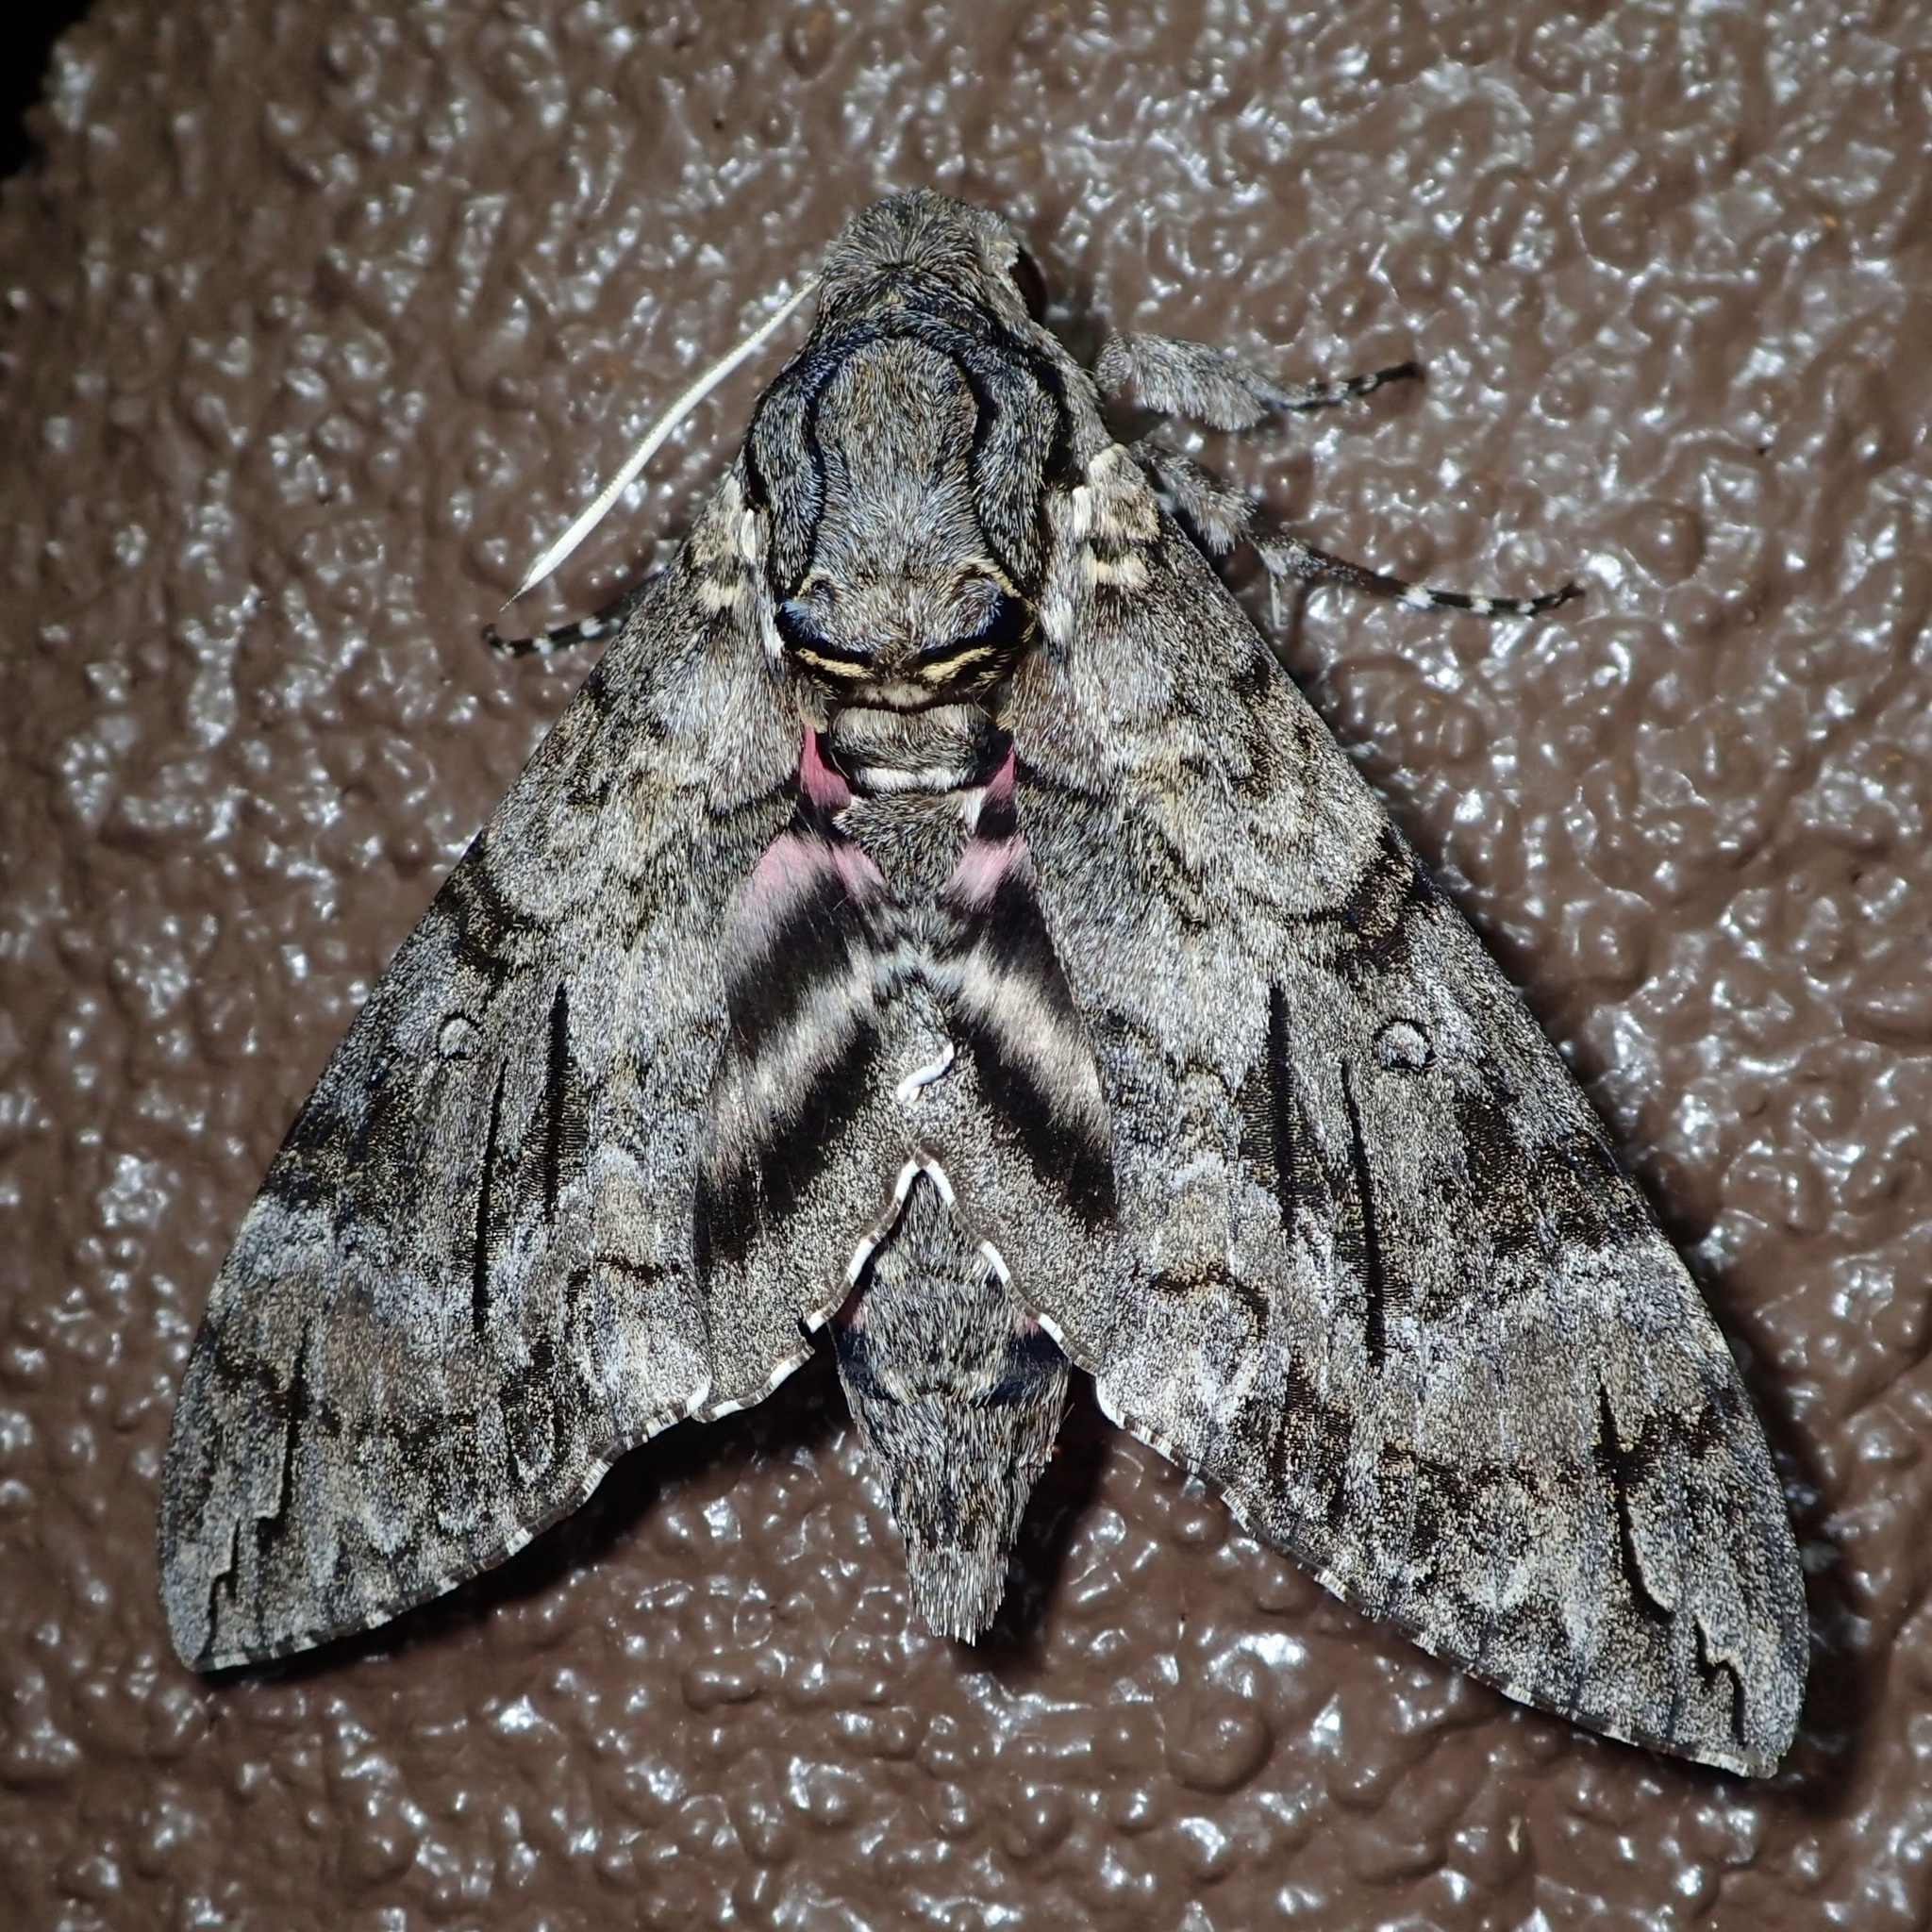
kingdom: Animalia
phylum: Arthropoda
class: Insecta
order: Lepidoptera
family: Sphingidae
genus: Agrius
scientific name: Agrius cingulata
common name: Pink-spotted hawkmoth
